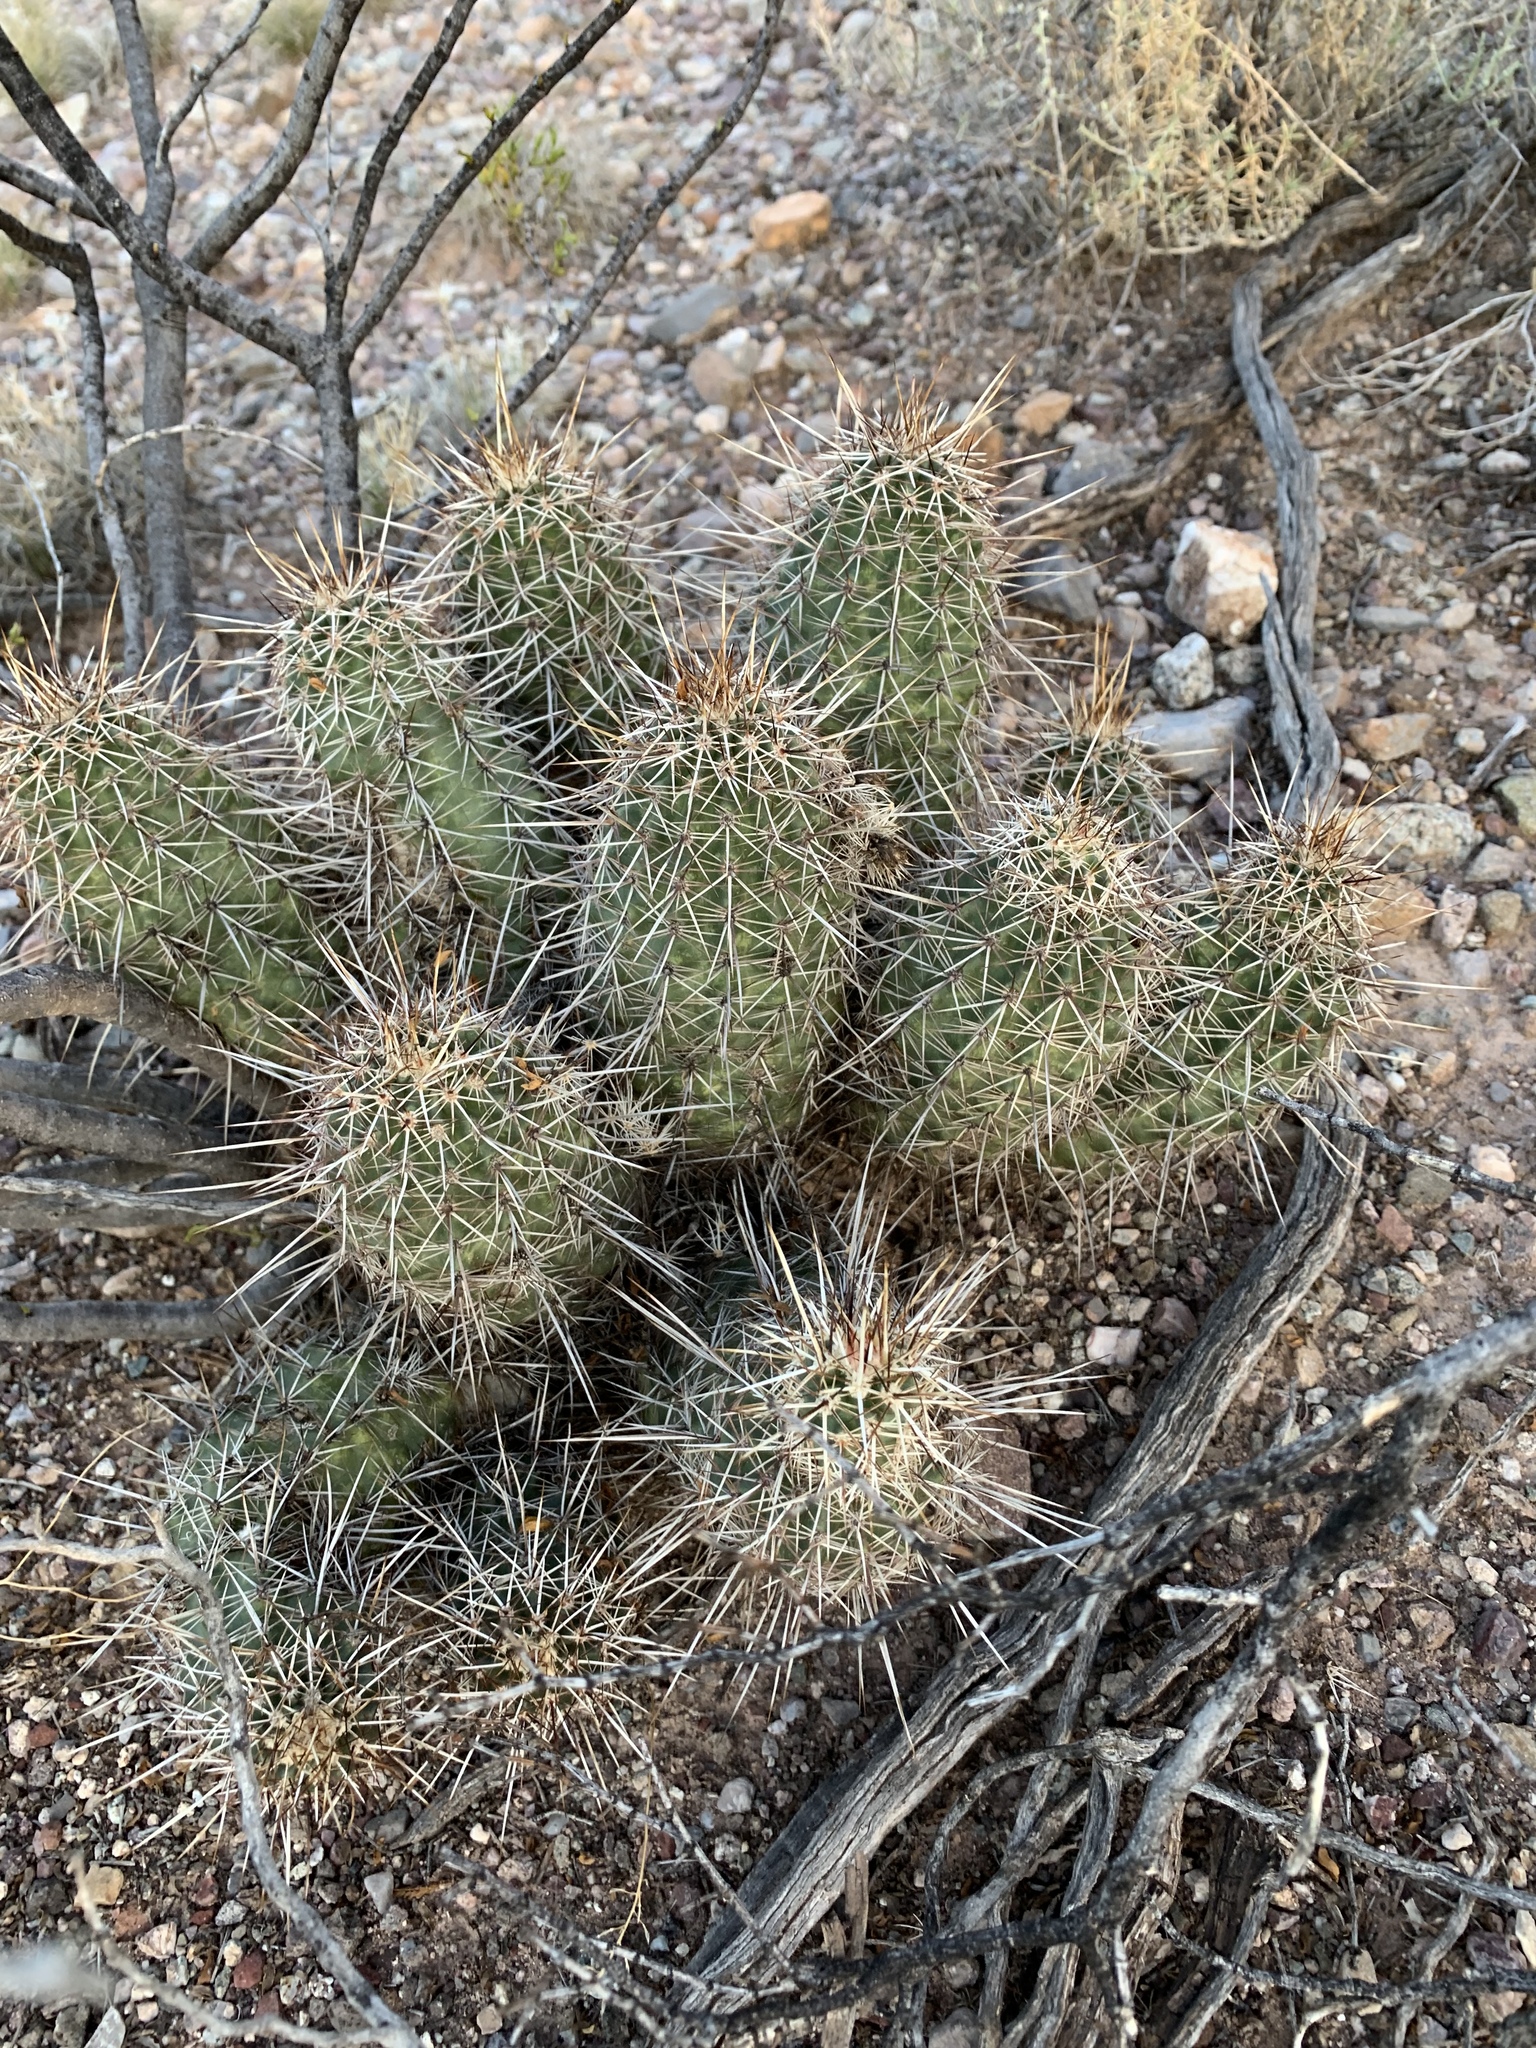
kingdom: Plantae
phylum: Tracheophyta
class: Magnoliopsida
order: Caryophyllales
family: Cactaceae
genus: Echinocereus
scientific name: Echinocereus fasciculatus
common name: Bundle hedgehog
